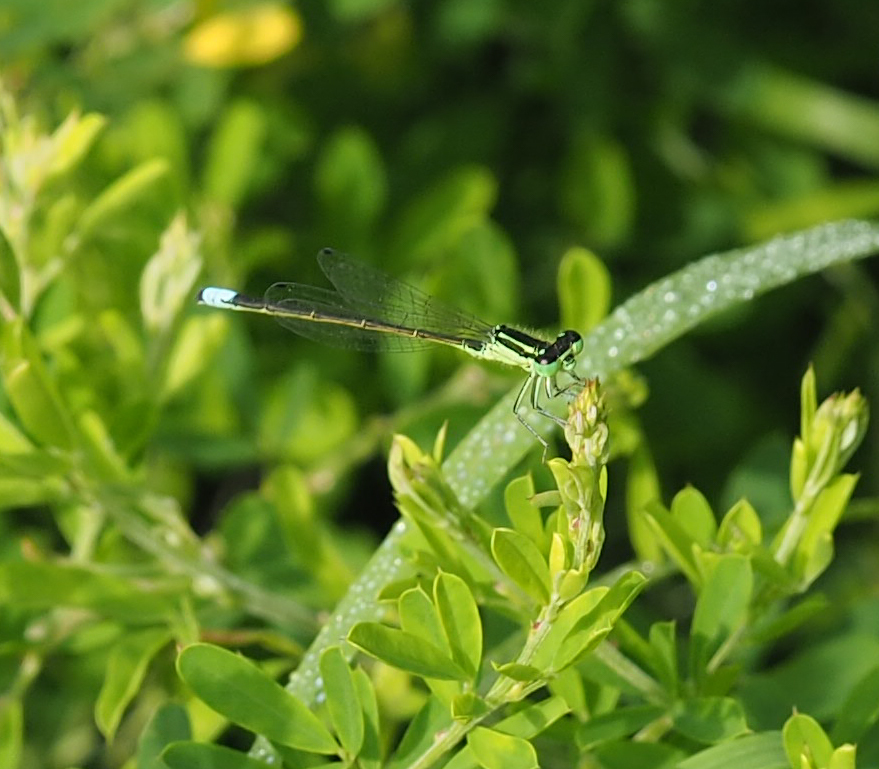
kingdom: Animalia
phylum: Arthropoda
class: Insecta
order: Odonata
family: Coenagrionidae
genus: Ischnura
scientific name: Ischnura verticalis
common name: Eastern forktail
